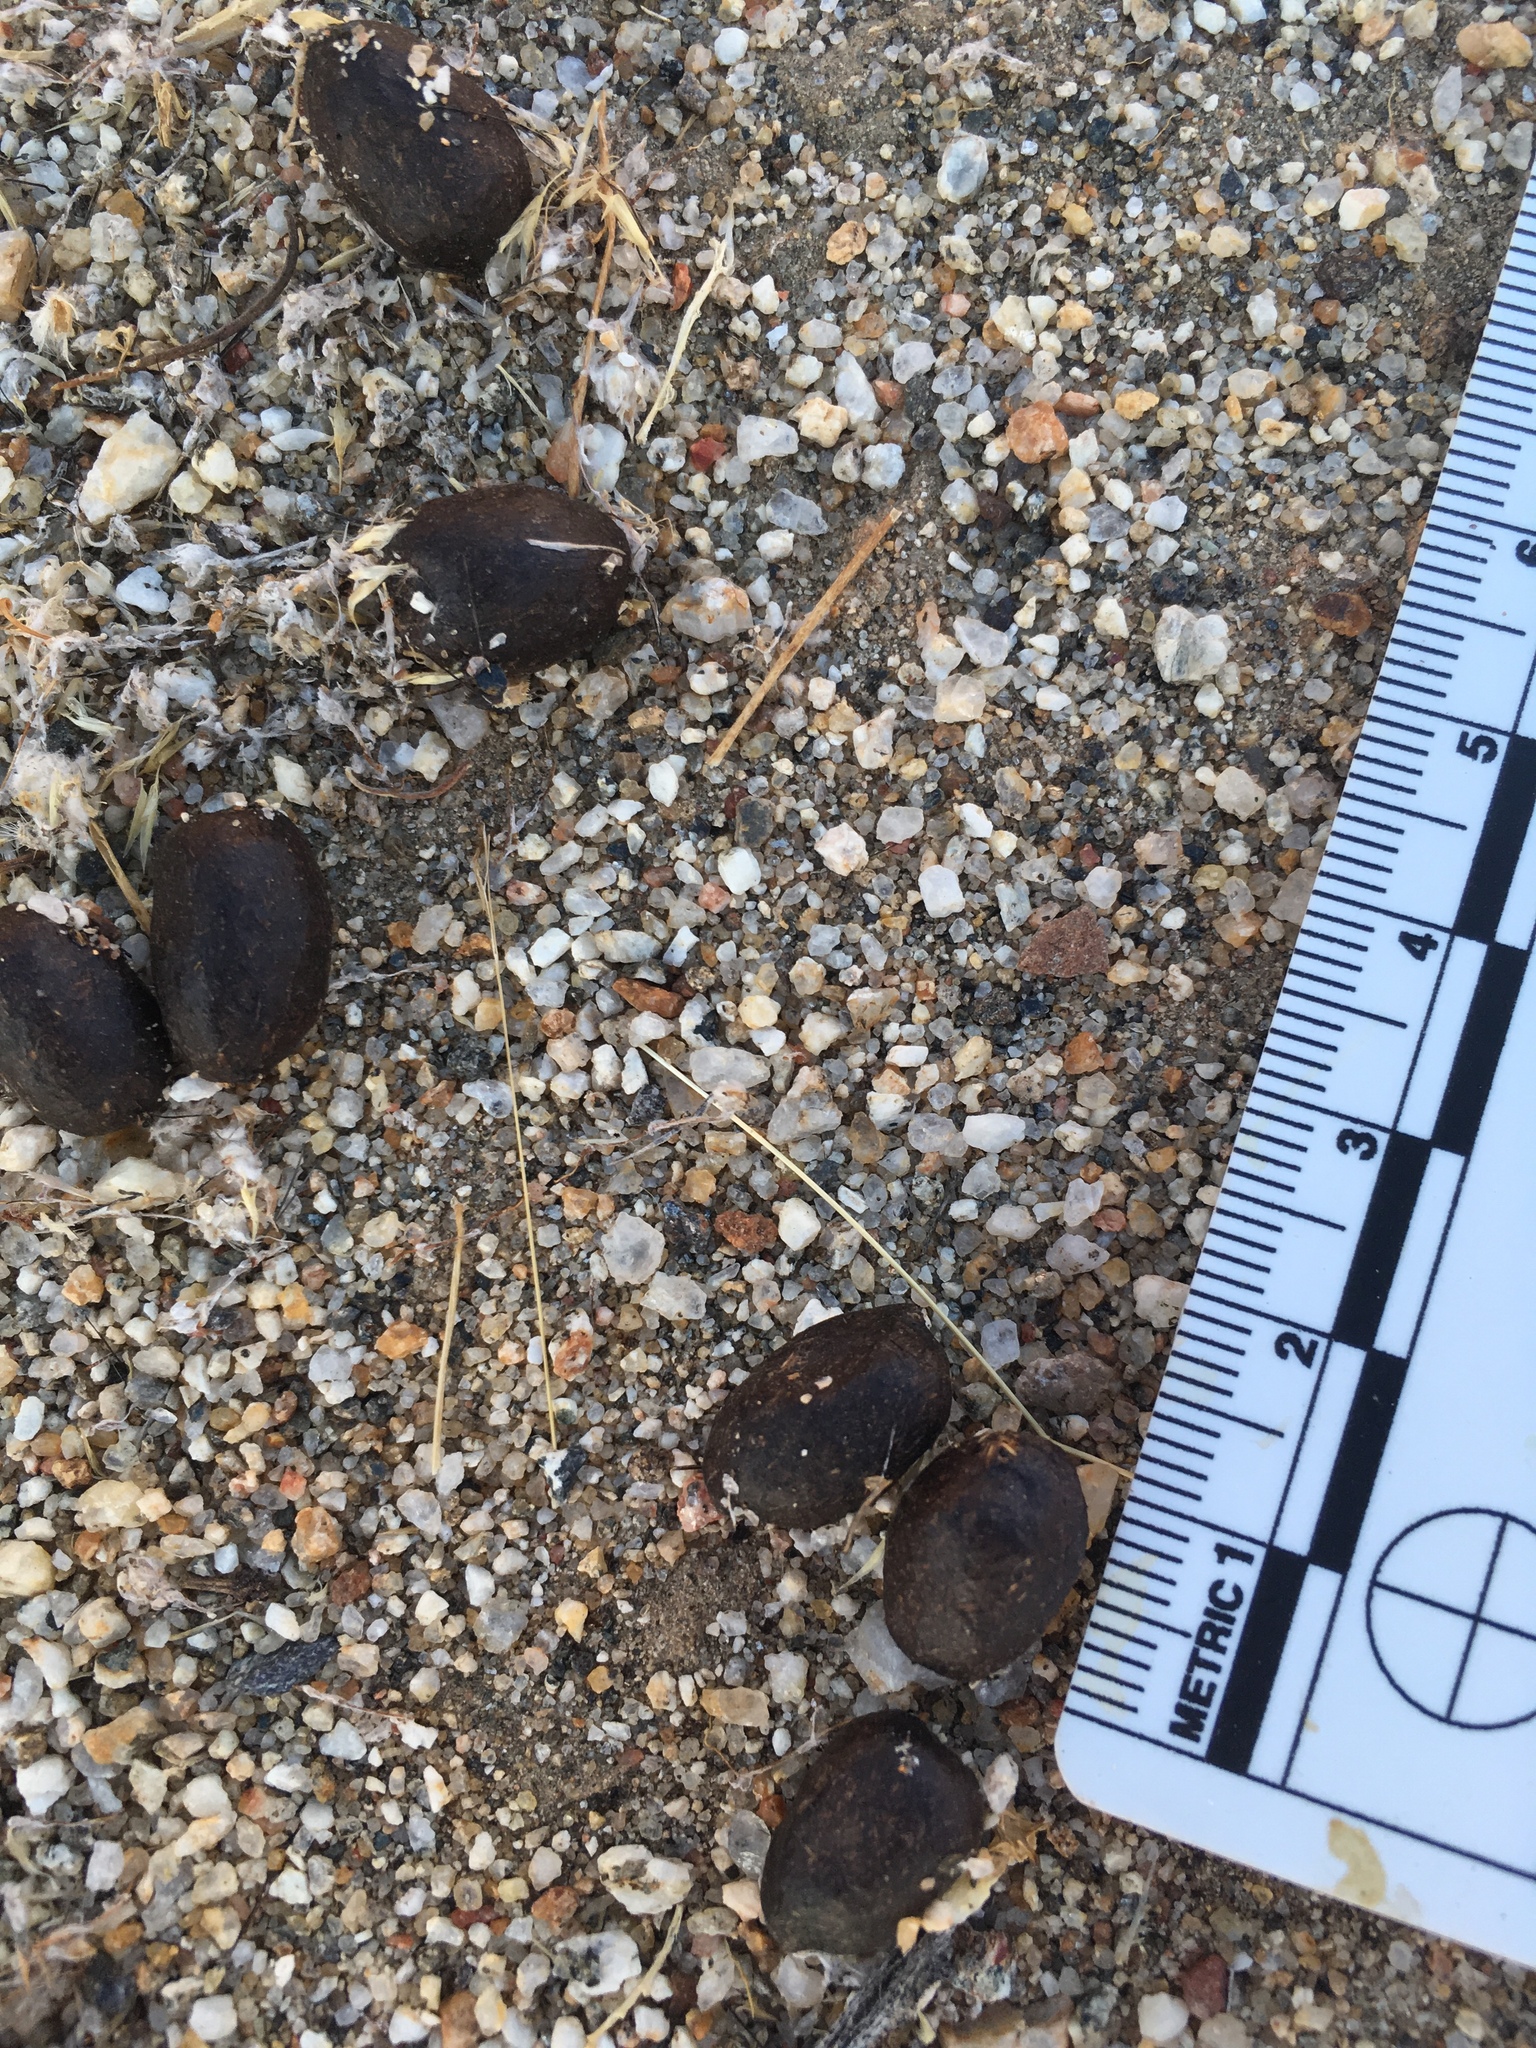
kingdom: Animalia
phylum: Chordata
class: Mammalia
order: Artiodactyla
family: Bovidae
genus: Ovis
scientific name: Ovis canadensis
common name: Bighorn sheep
